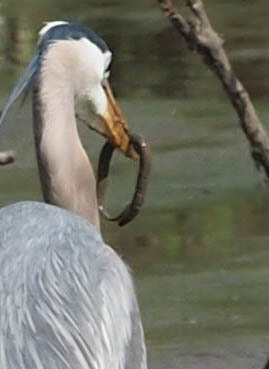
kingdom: Animalia
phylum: Chordata
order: Anguilliformes
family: Anguillidae
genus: Anguilla
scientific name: Anguilla rostrata
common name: American eel
